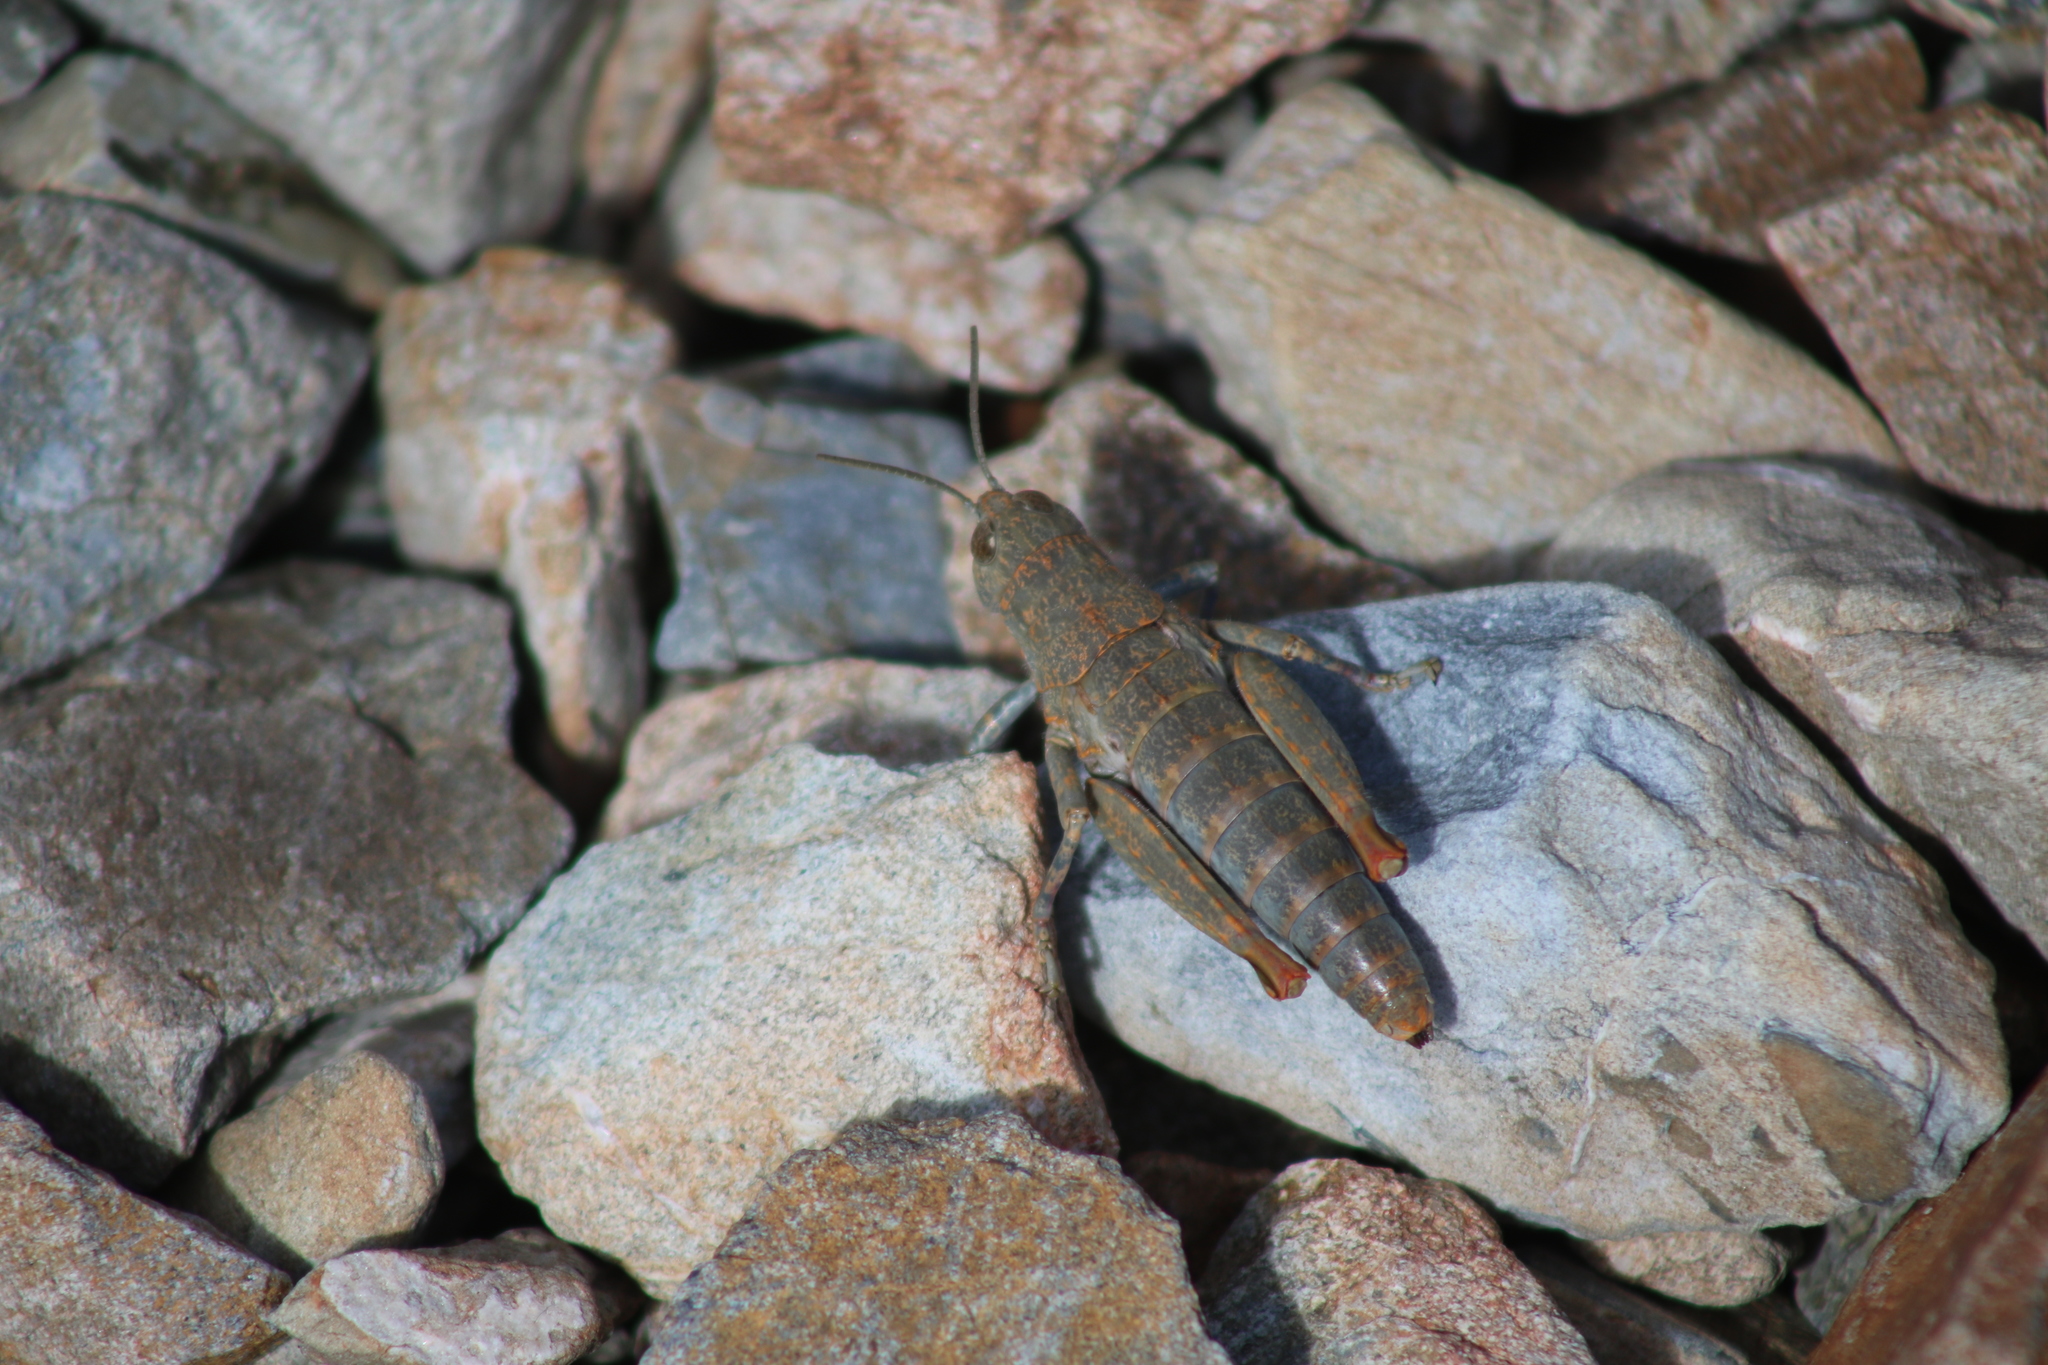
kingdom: Animalia
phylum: Arthropoda
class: Insecta
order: Orthoptera
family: Acrididae
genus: Sigaus
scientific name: Sigaus
